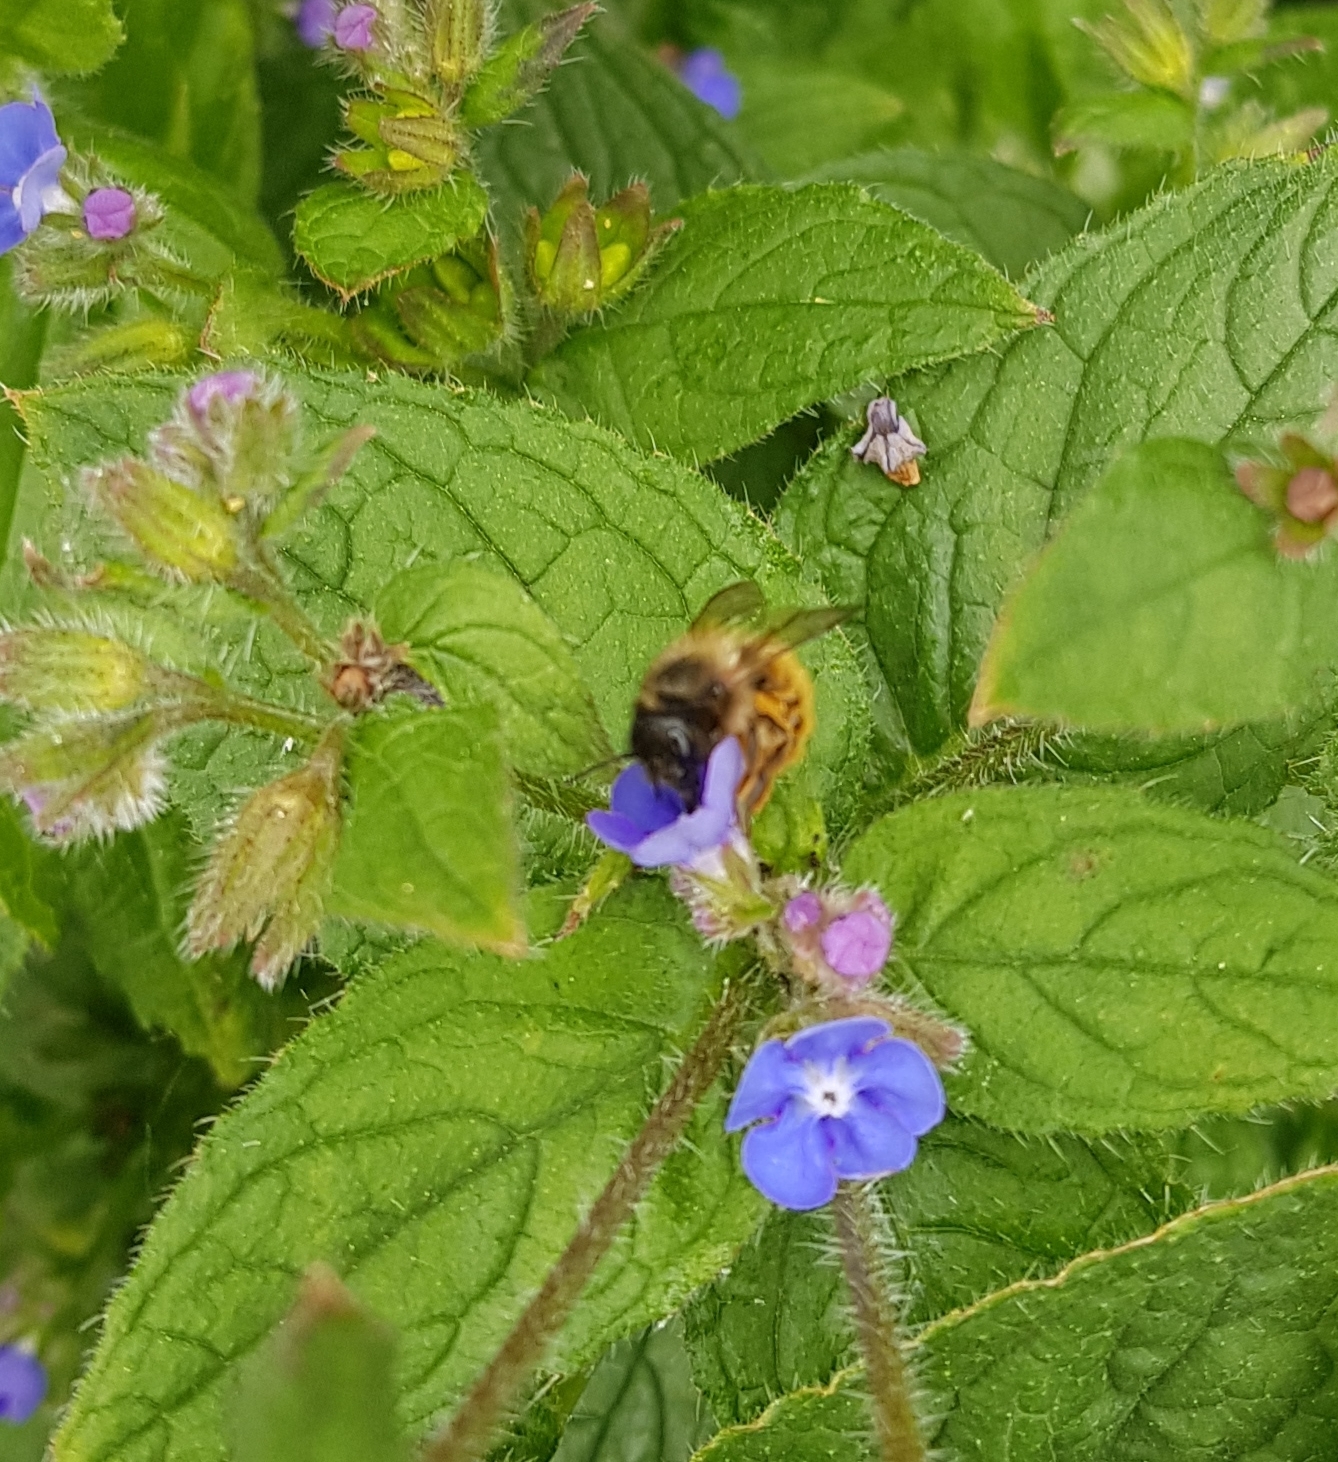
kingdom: Animalia
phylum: Arthropoda
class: Insecta
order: Hymenoptera
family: Megachilidae
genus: Osmia
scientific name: Osmia bicornis
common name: Red mason bee
